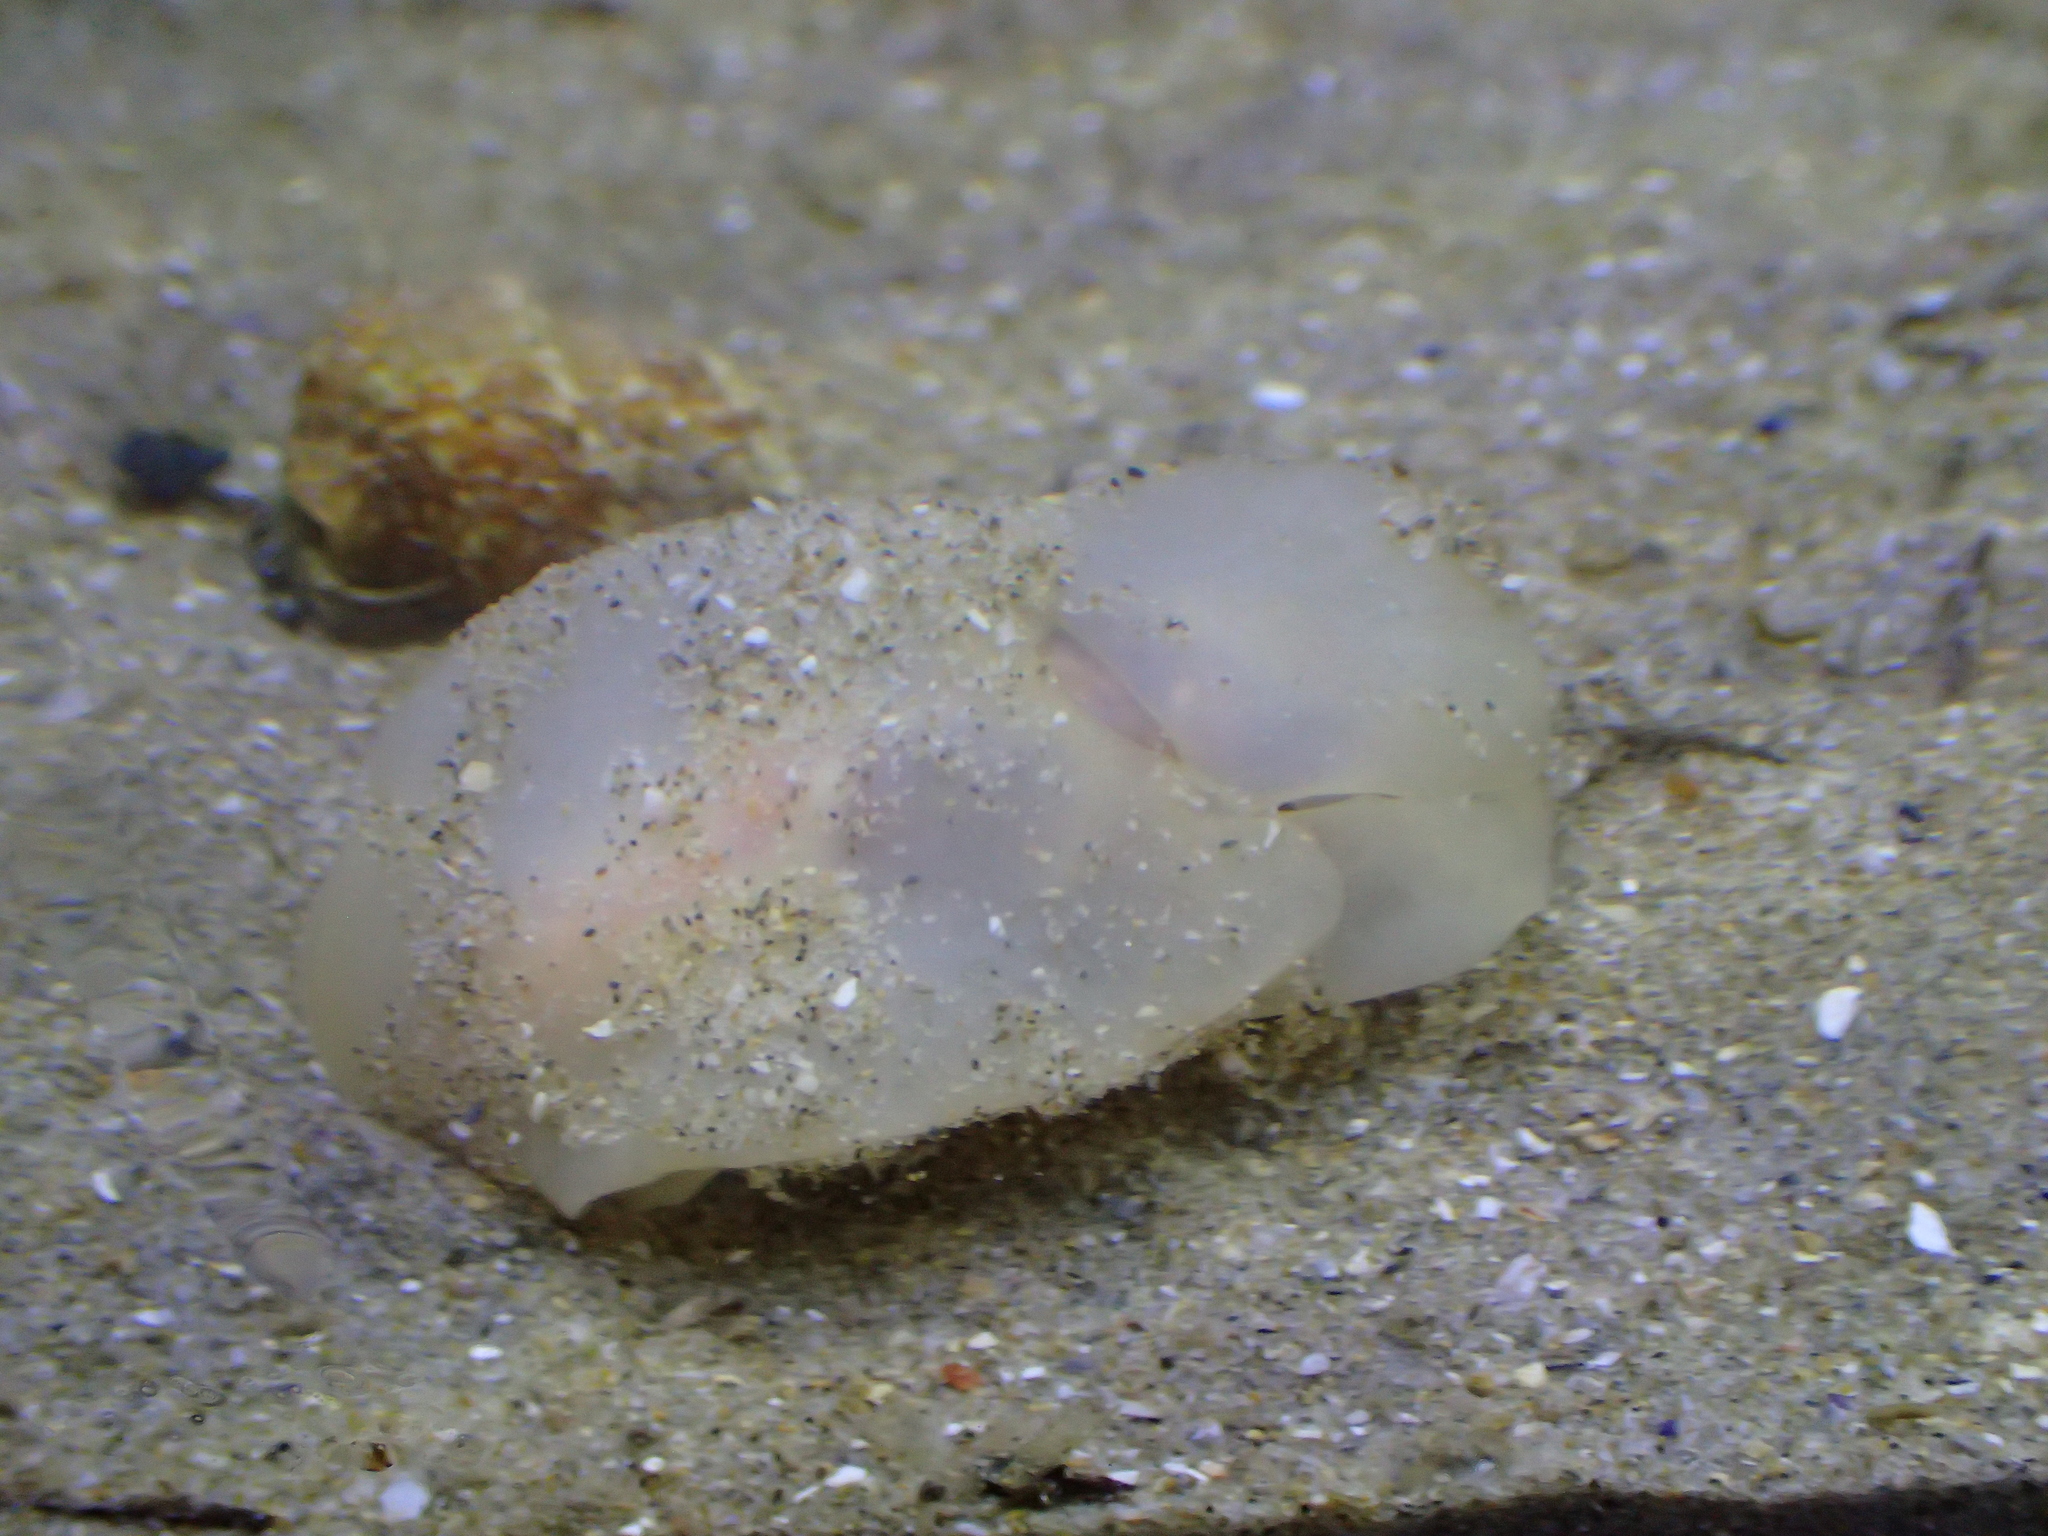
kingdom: Animalia
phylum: Mollusca
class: Gastropoda
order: Cephalaspidea
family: Philinidae
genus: Philine
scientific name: Philine quadripartita
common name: Lobe shell
